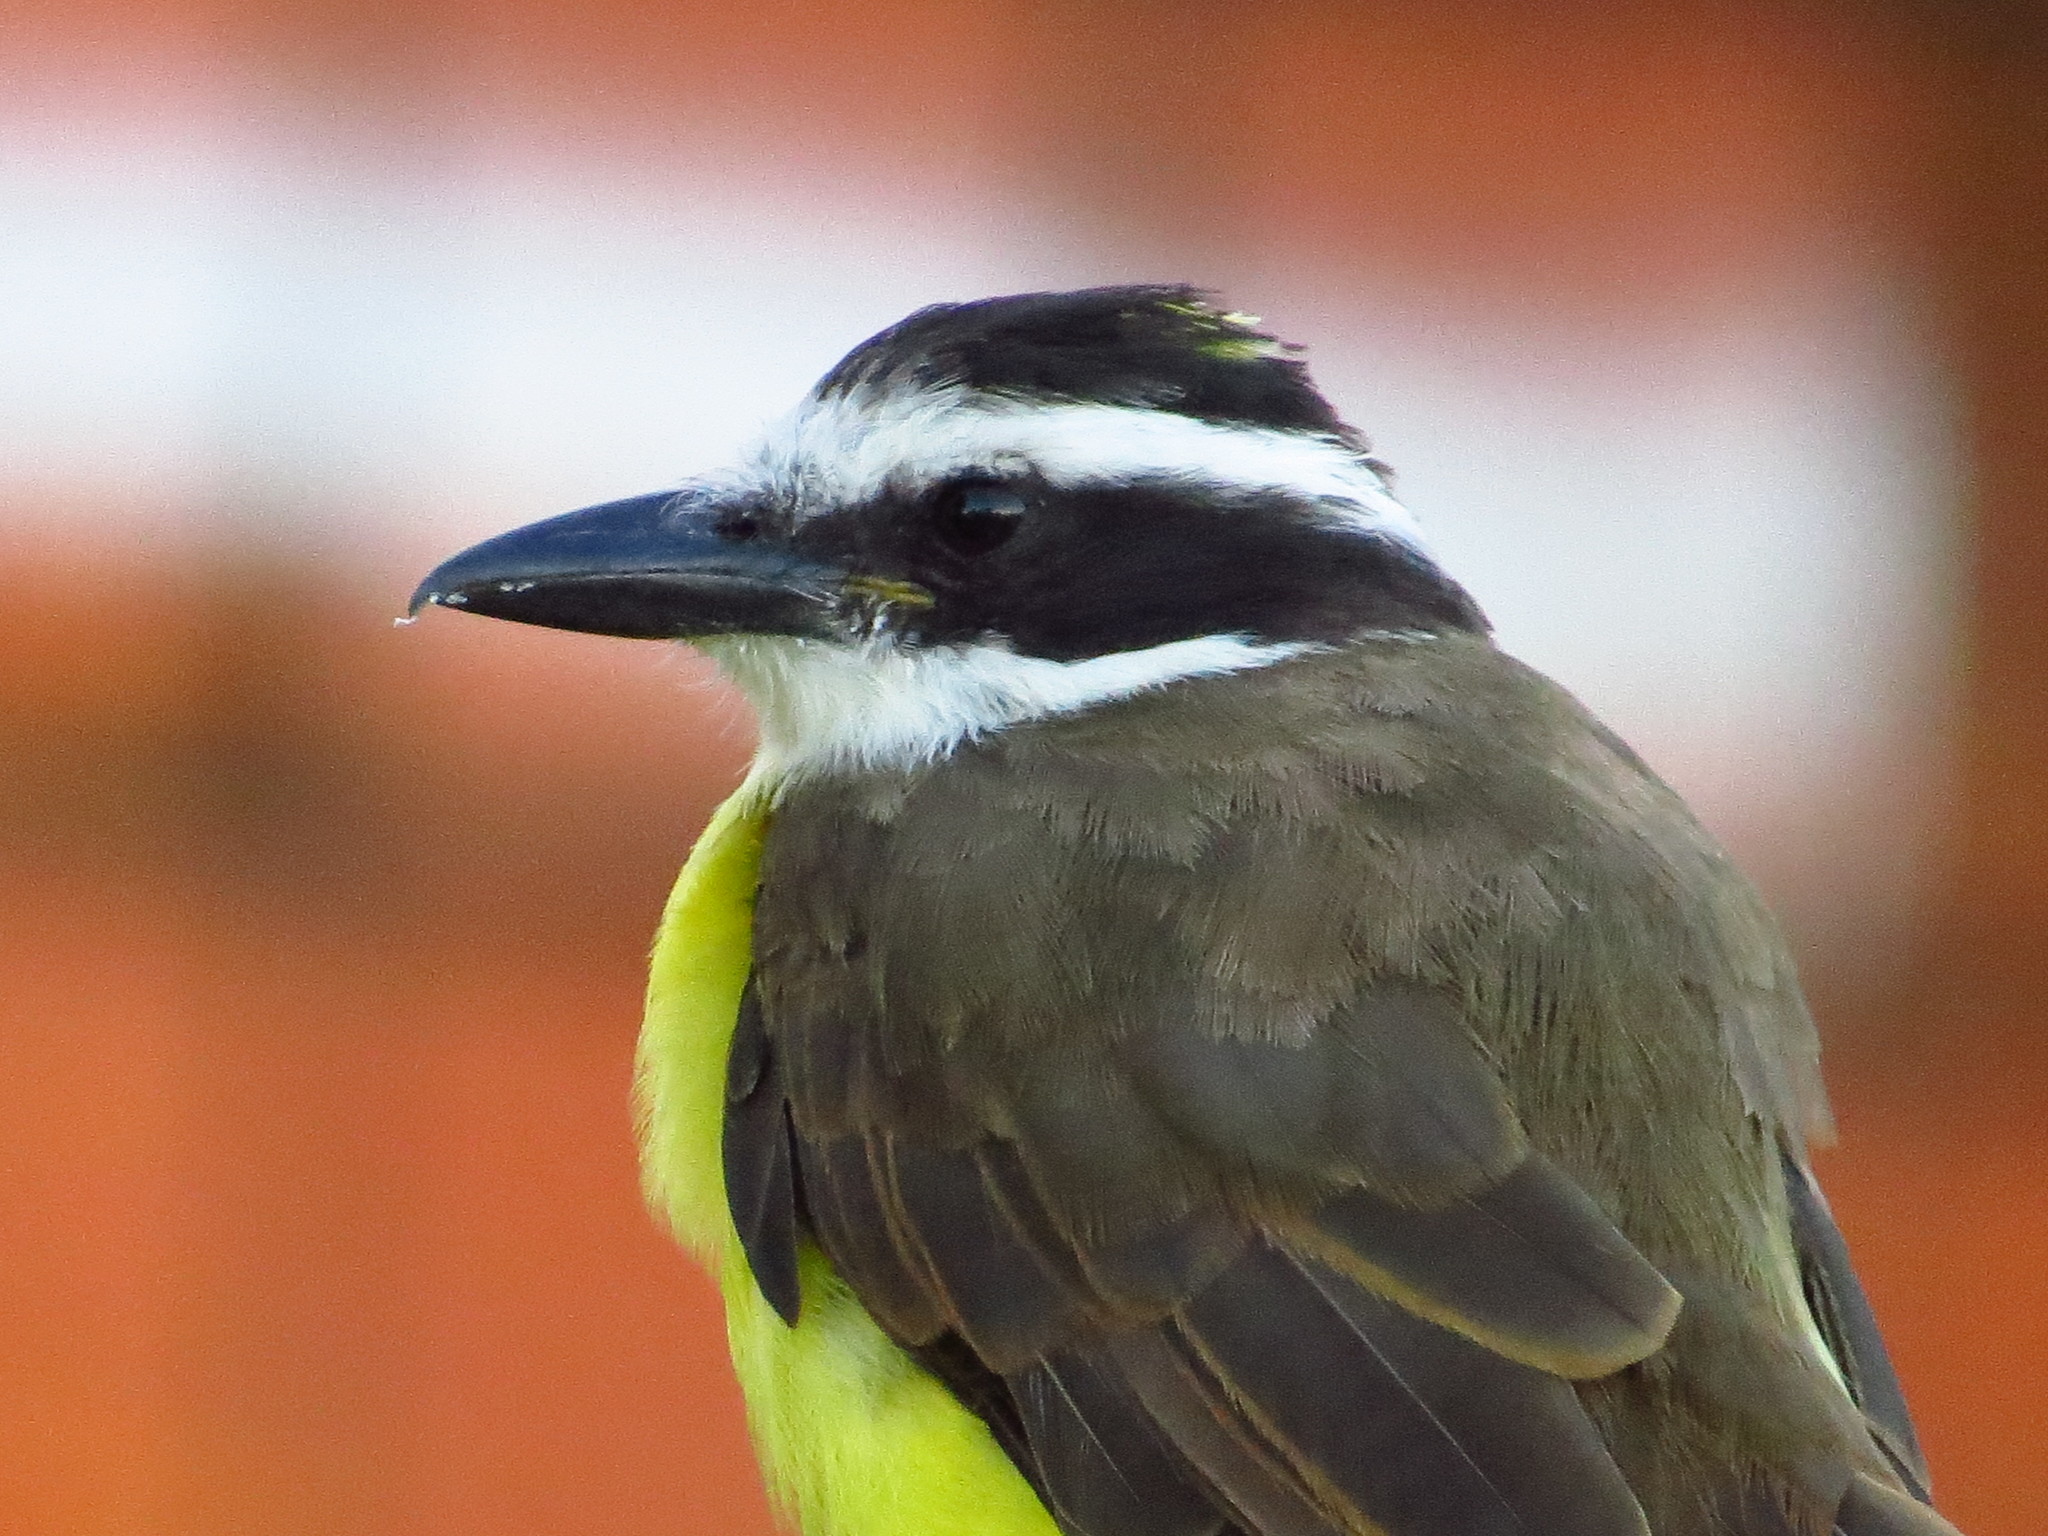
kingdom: Animalia
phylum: Chordata
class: Aves
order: Passeriformes
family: Tyrannidae
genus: Pitangus
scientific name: Pitangus sulphuratus
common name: Great kiskadee
